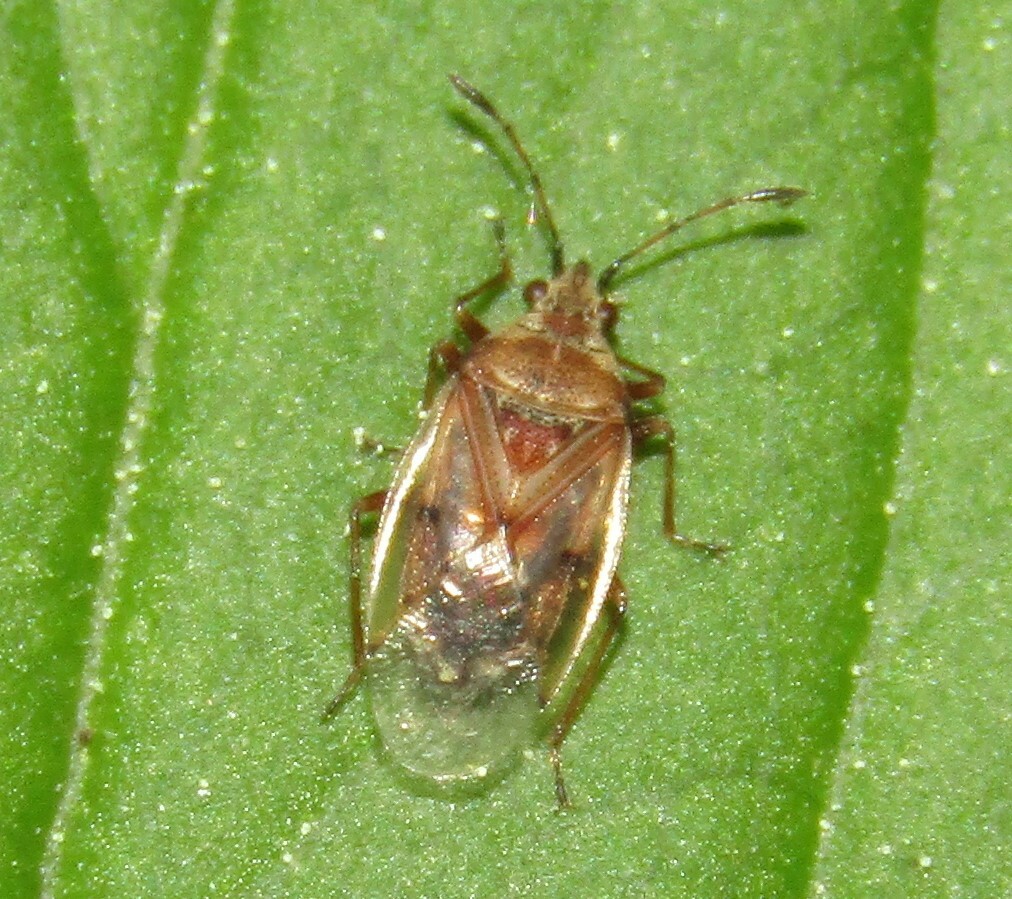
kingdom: Animalia
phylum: Arthropoda
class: Insecta
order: Hemiptera
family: Lygaeidae
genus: Kleidocerys
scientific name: Kleidocerys resedae
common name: Birch catkin bug
